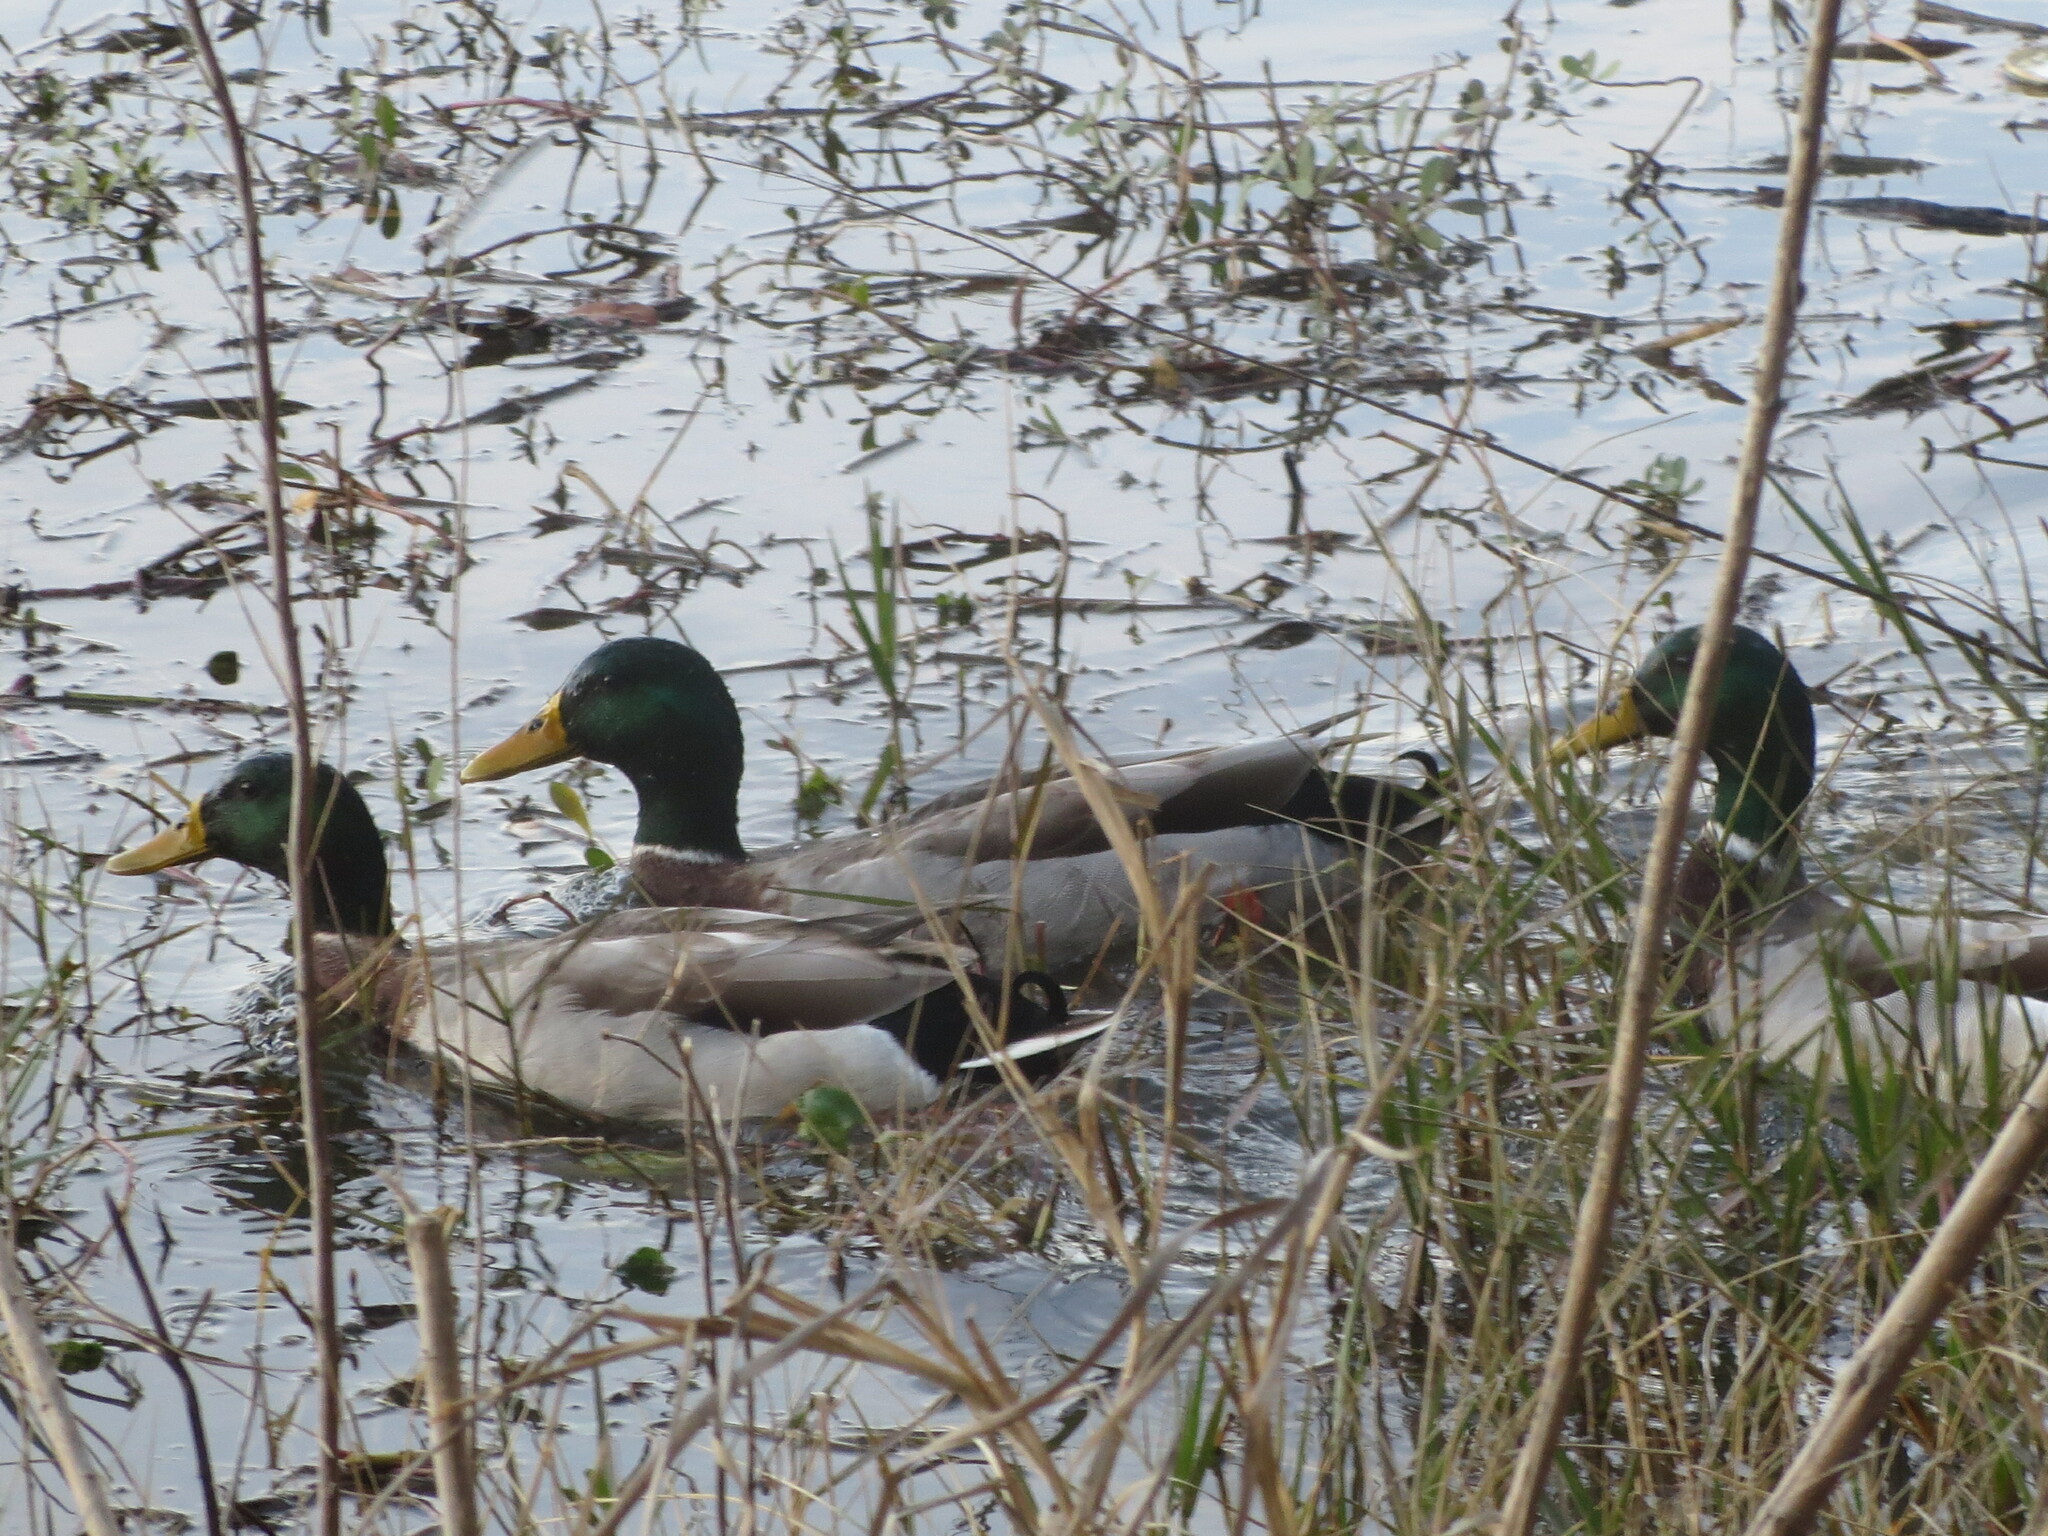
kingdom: Animalia
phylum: Chordata
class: Aves
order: Anseriformes
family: Anatidae
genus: Anas
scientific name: Anas platyrhynchos
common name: Mallard
